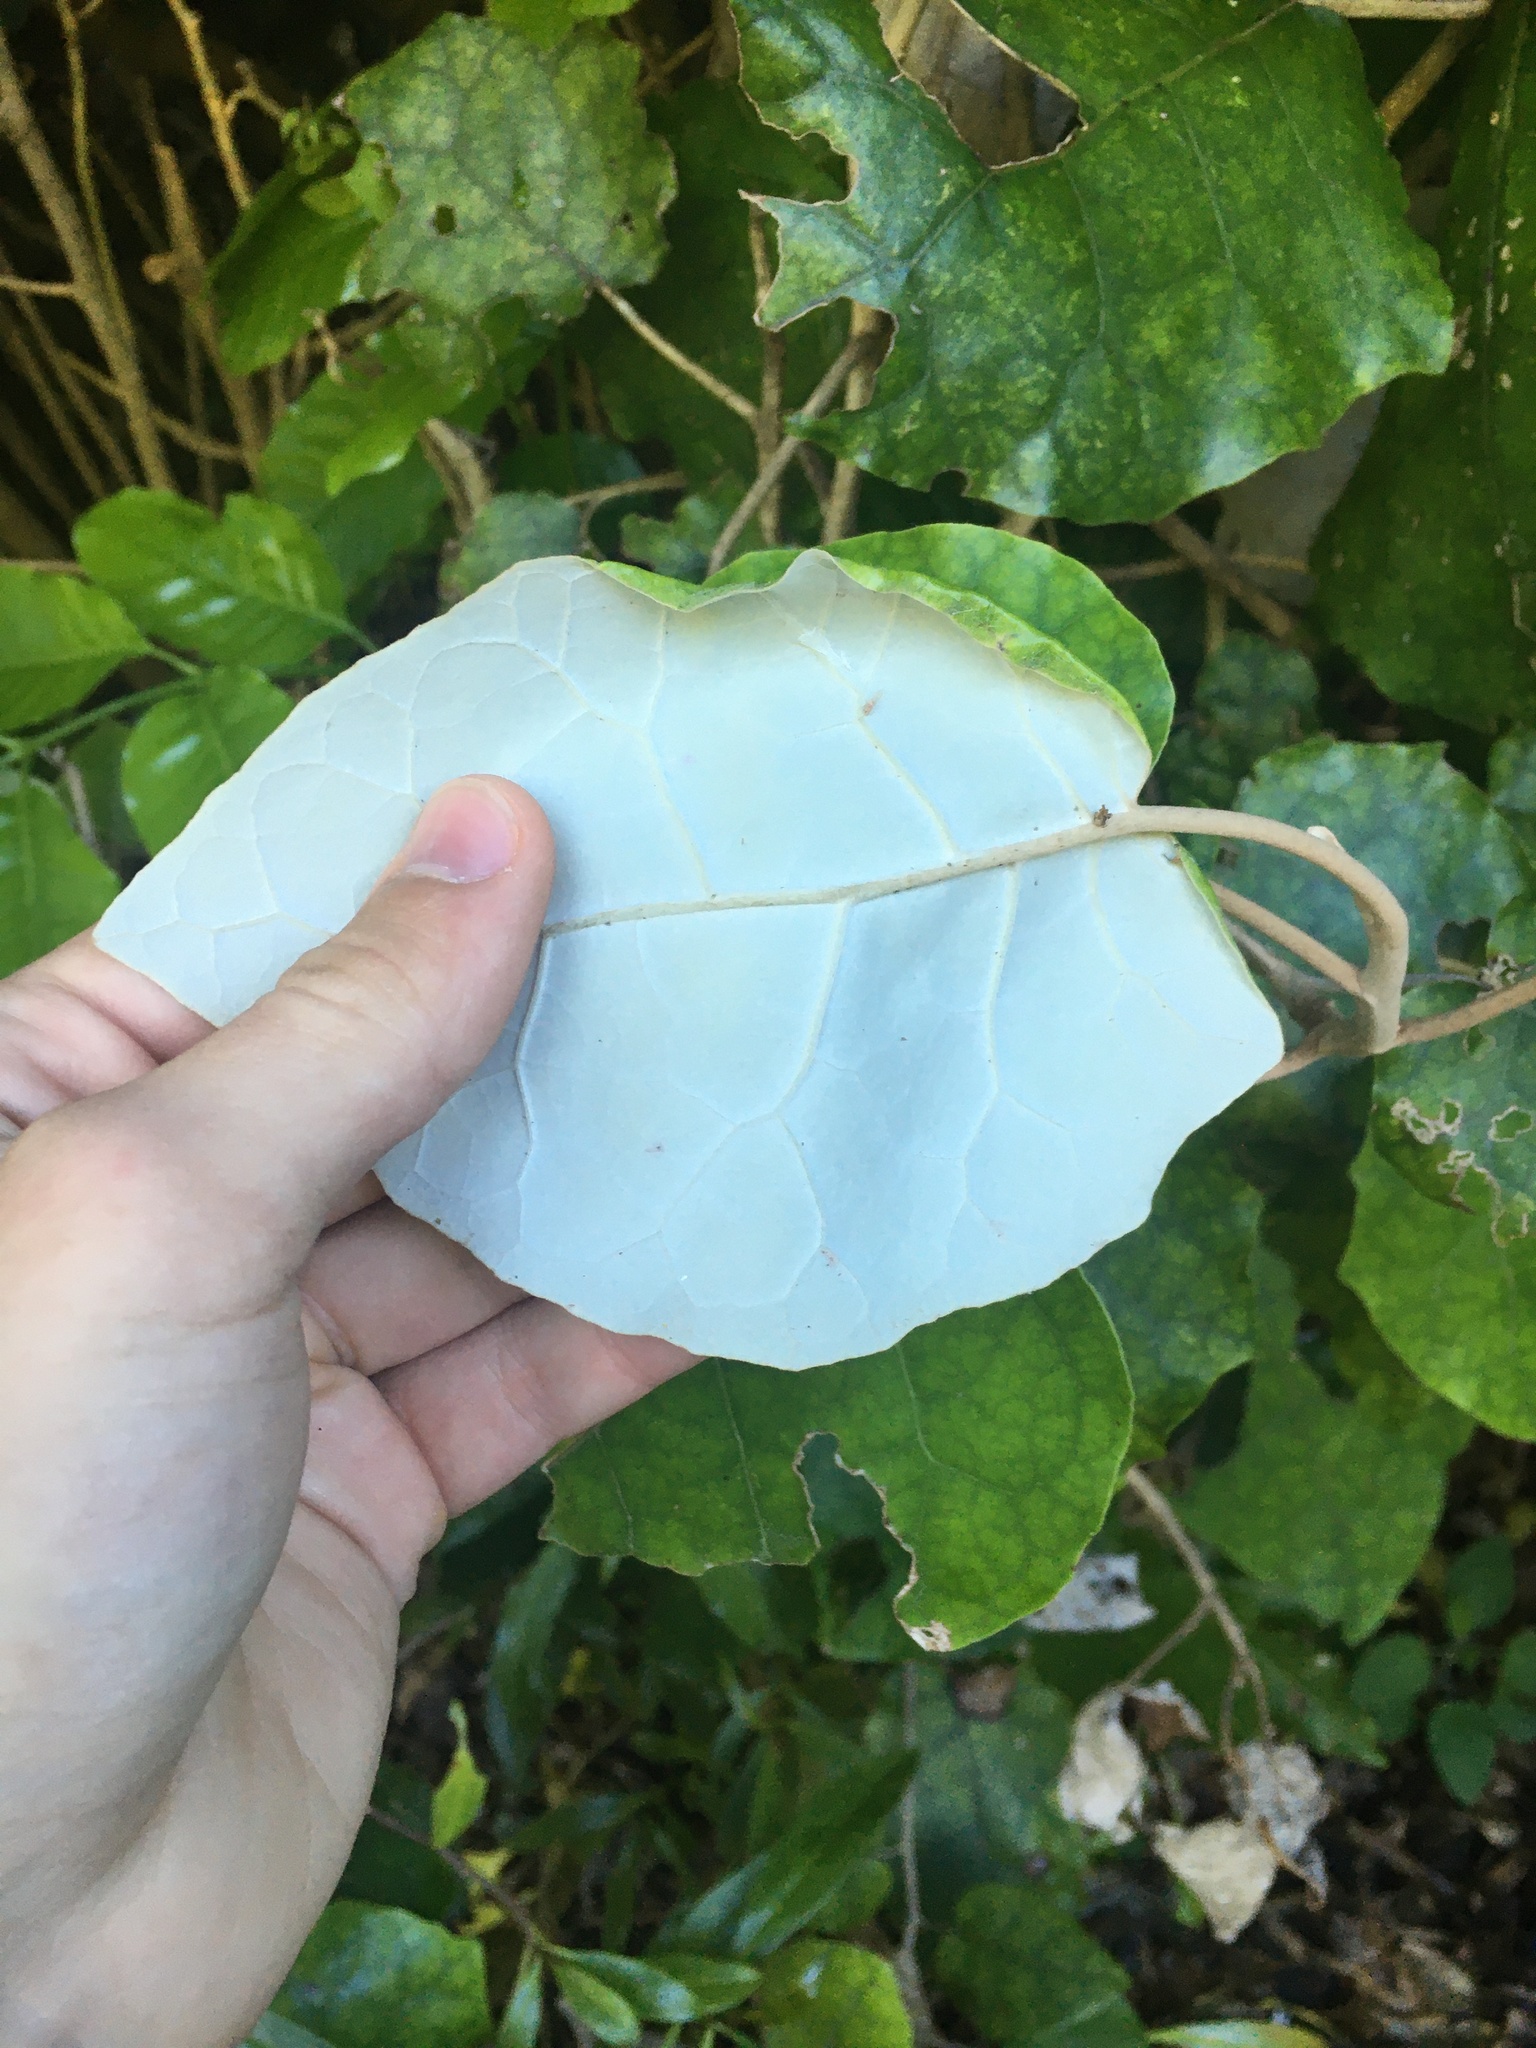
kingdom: Plantae
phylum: Tracheophyta
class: Magnoliopsida
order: Asterales
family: Asteraceae
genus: Brachyglottis
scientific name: Brachyglottis repanda
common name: Hedge ragwort
